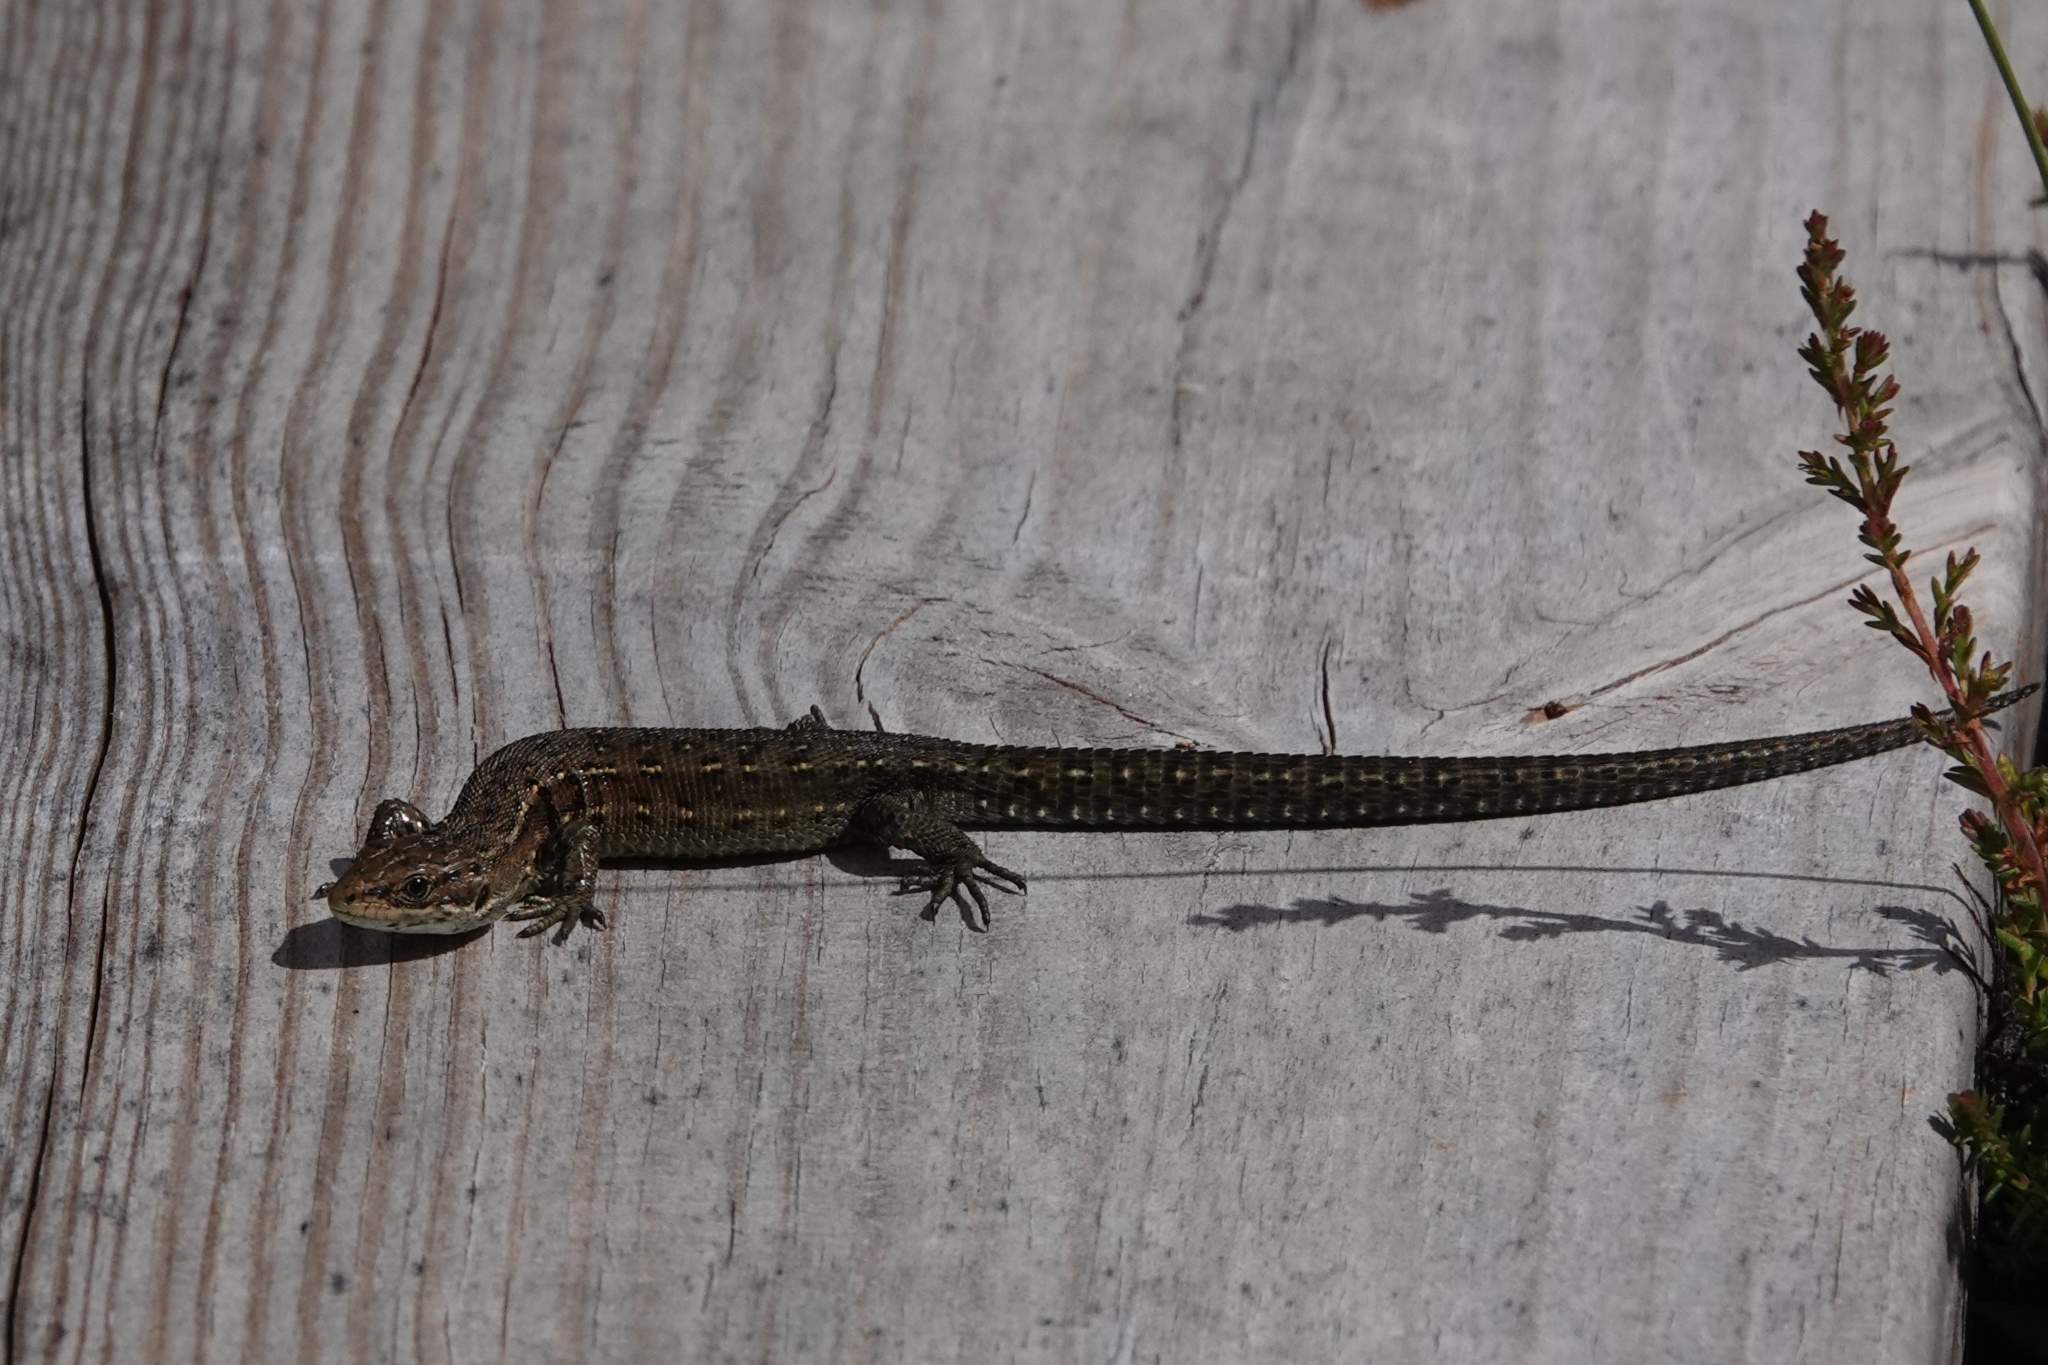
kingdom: Animalia
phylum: Chordata
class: Squamata
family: Lacertidae
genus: Zootoca
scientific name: Zootoca vivipara
